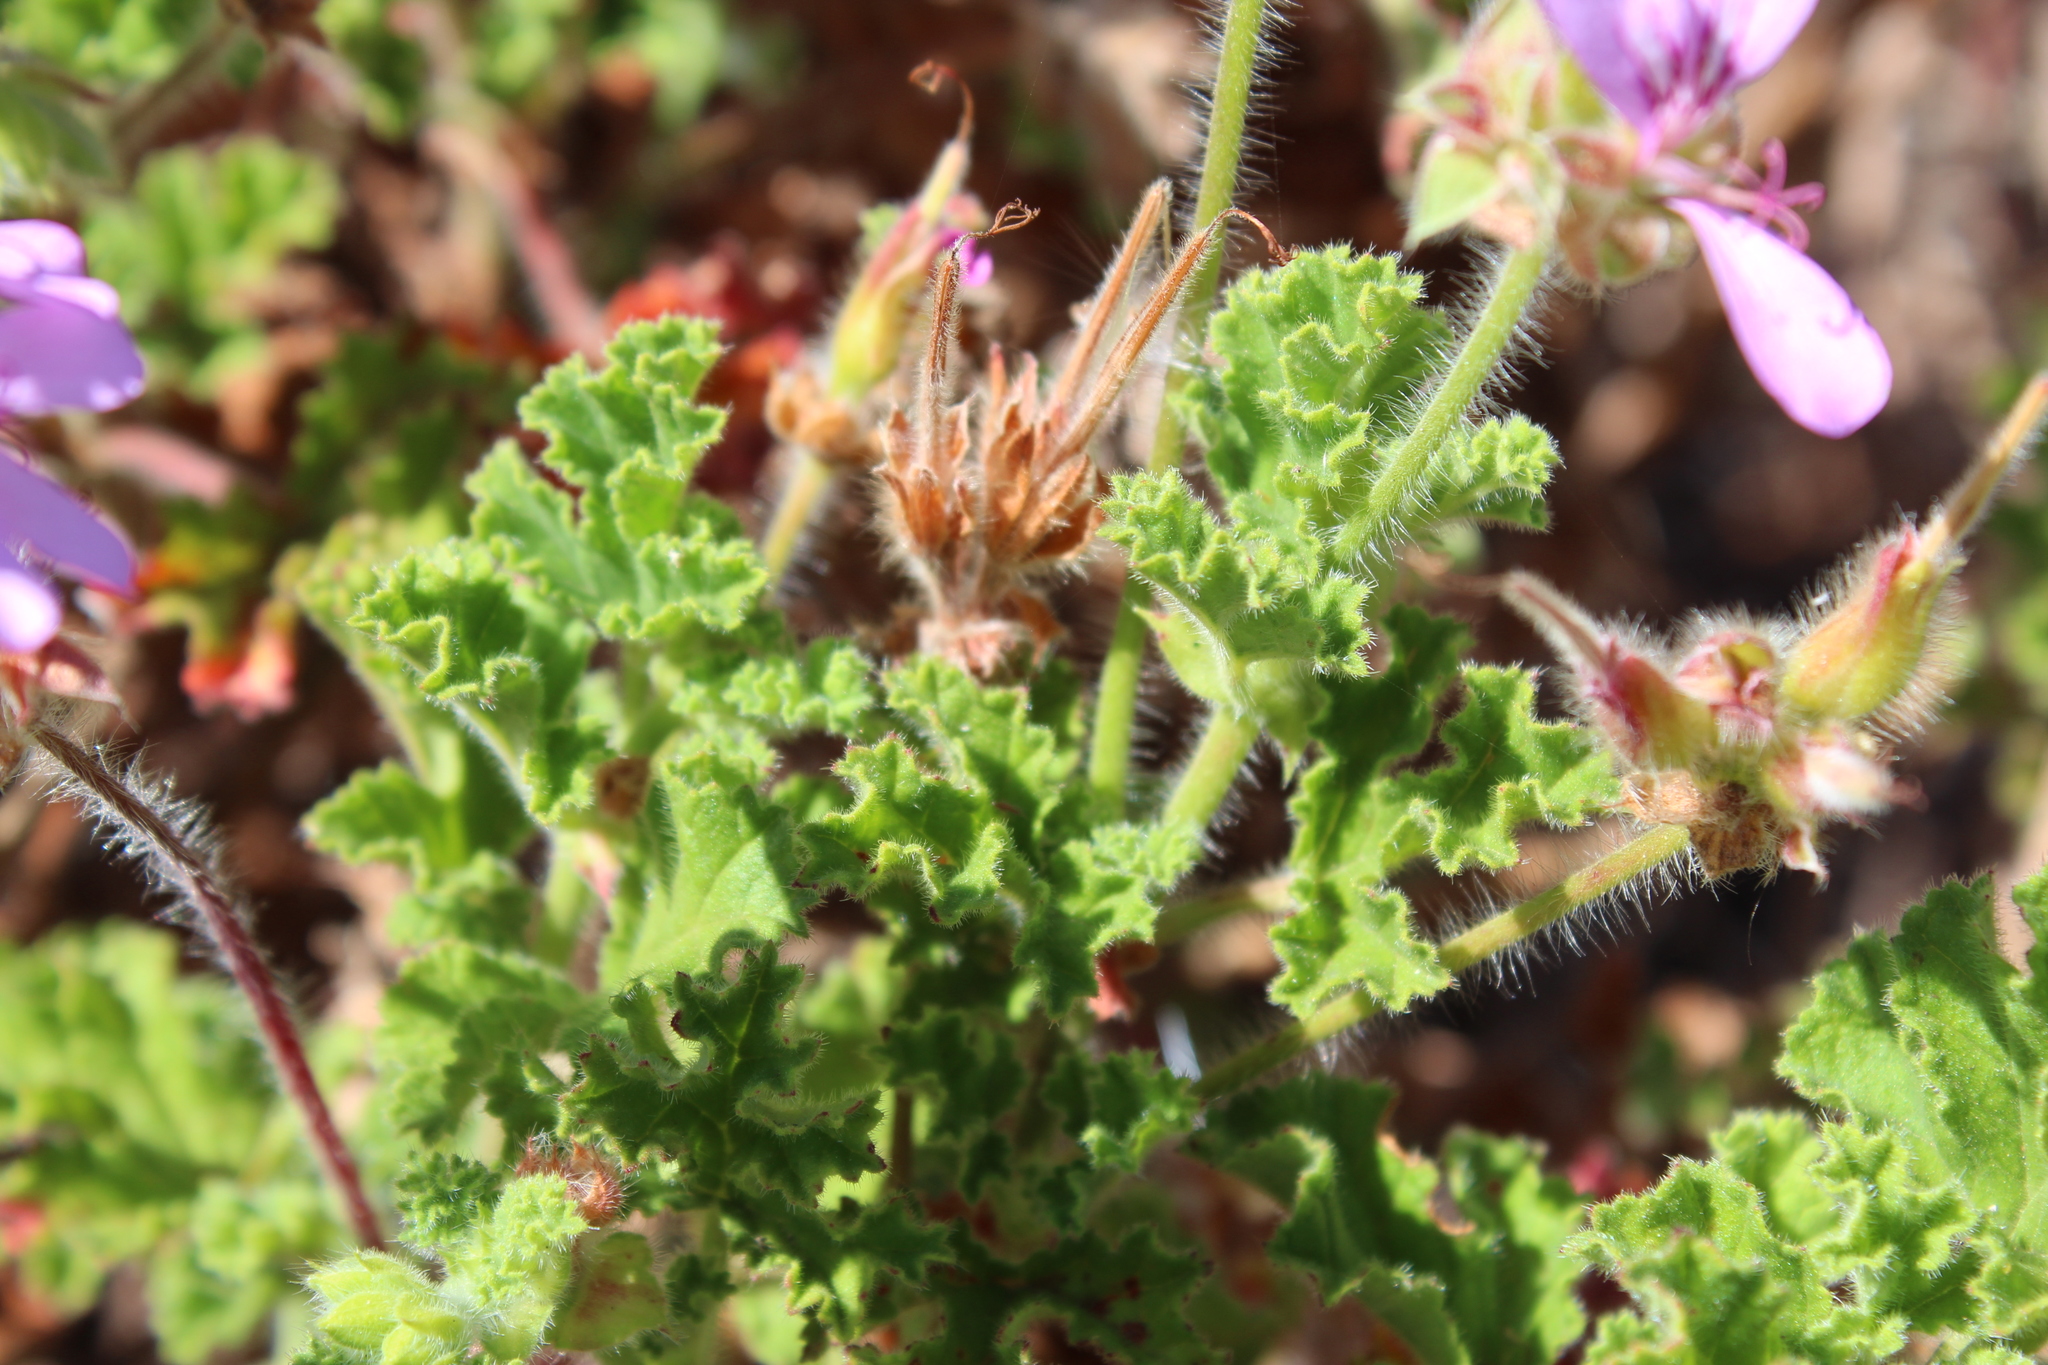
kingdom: Plantae
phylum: Tracheophyta
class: Magnoliopsida
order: Geraniales
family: Geraniaceae
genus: Pelargonium
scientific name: Pelargonium capitatum
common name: Rose scented geranium
